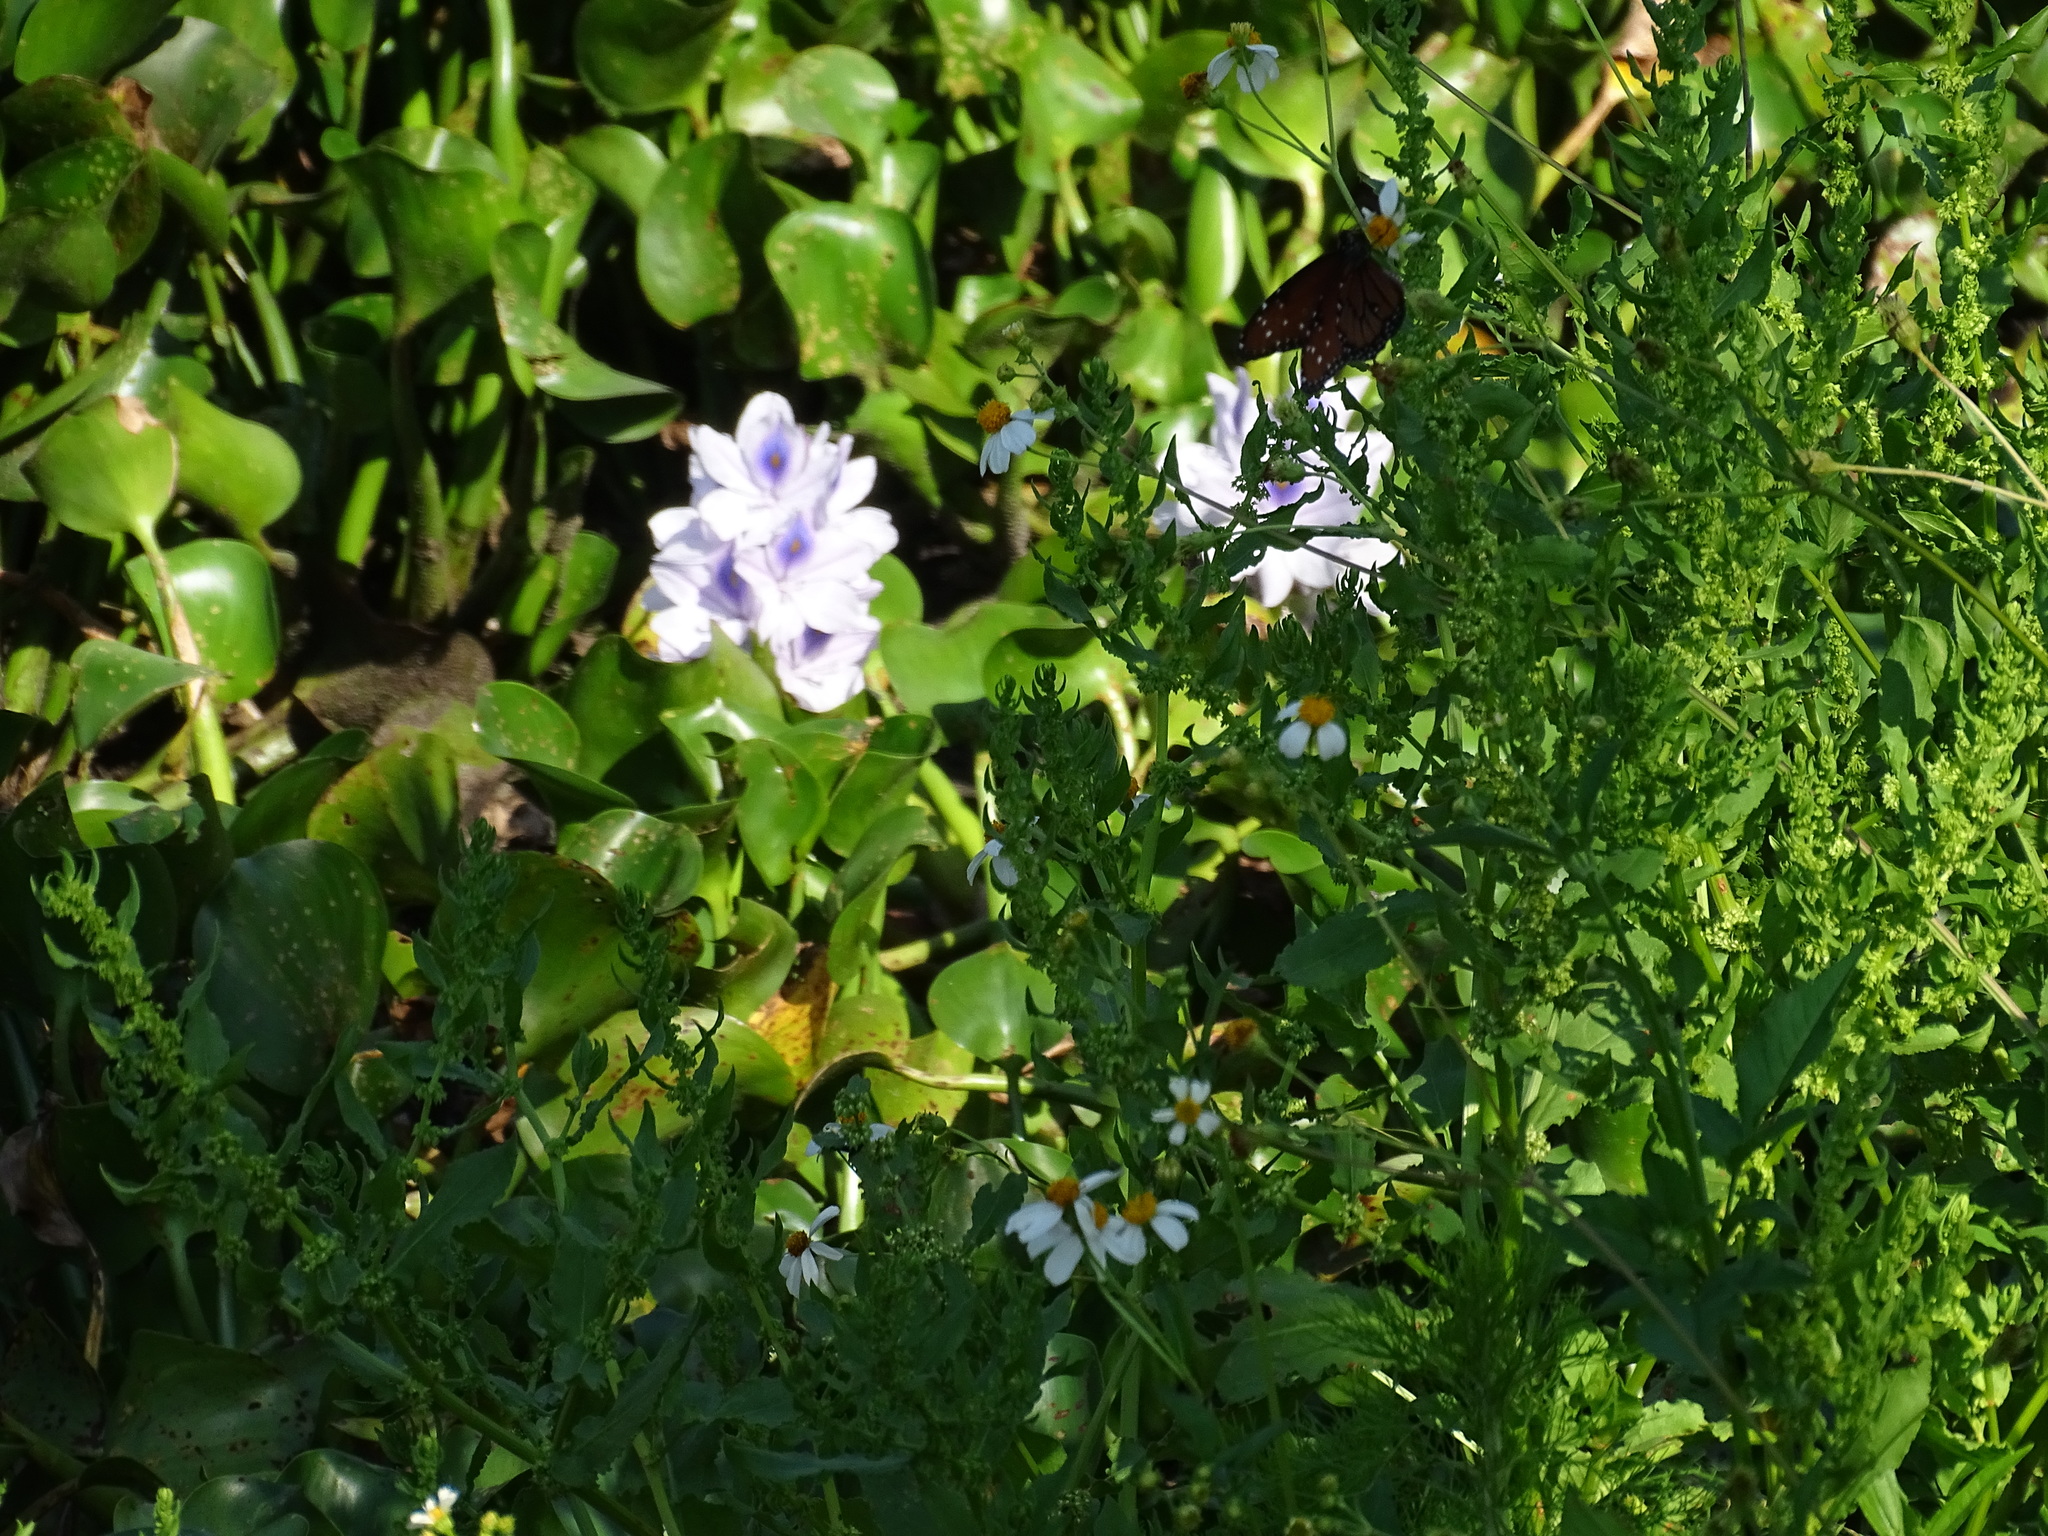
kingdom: Plantae
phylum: Tracheophyta
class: Liliopsida
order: Commelinales
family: Pontederiaceae
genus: Pontederia
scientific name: Pontederia crassipes
